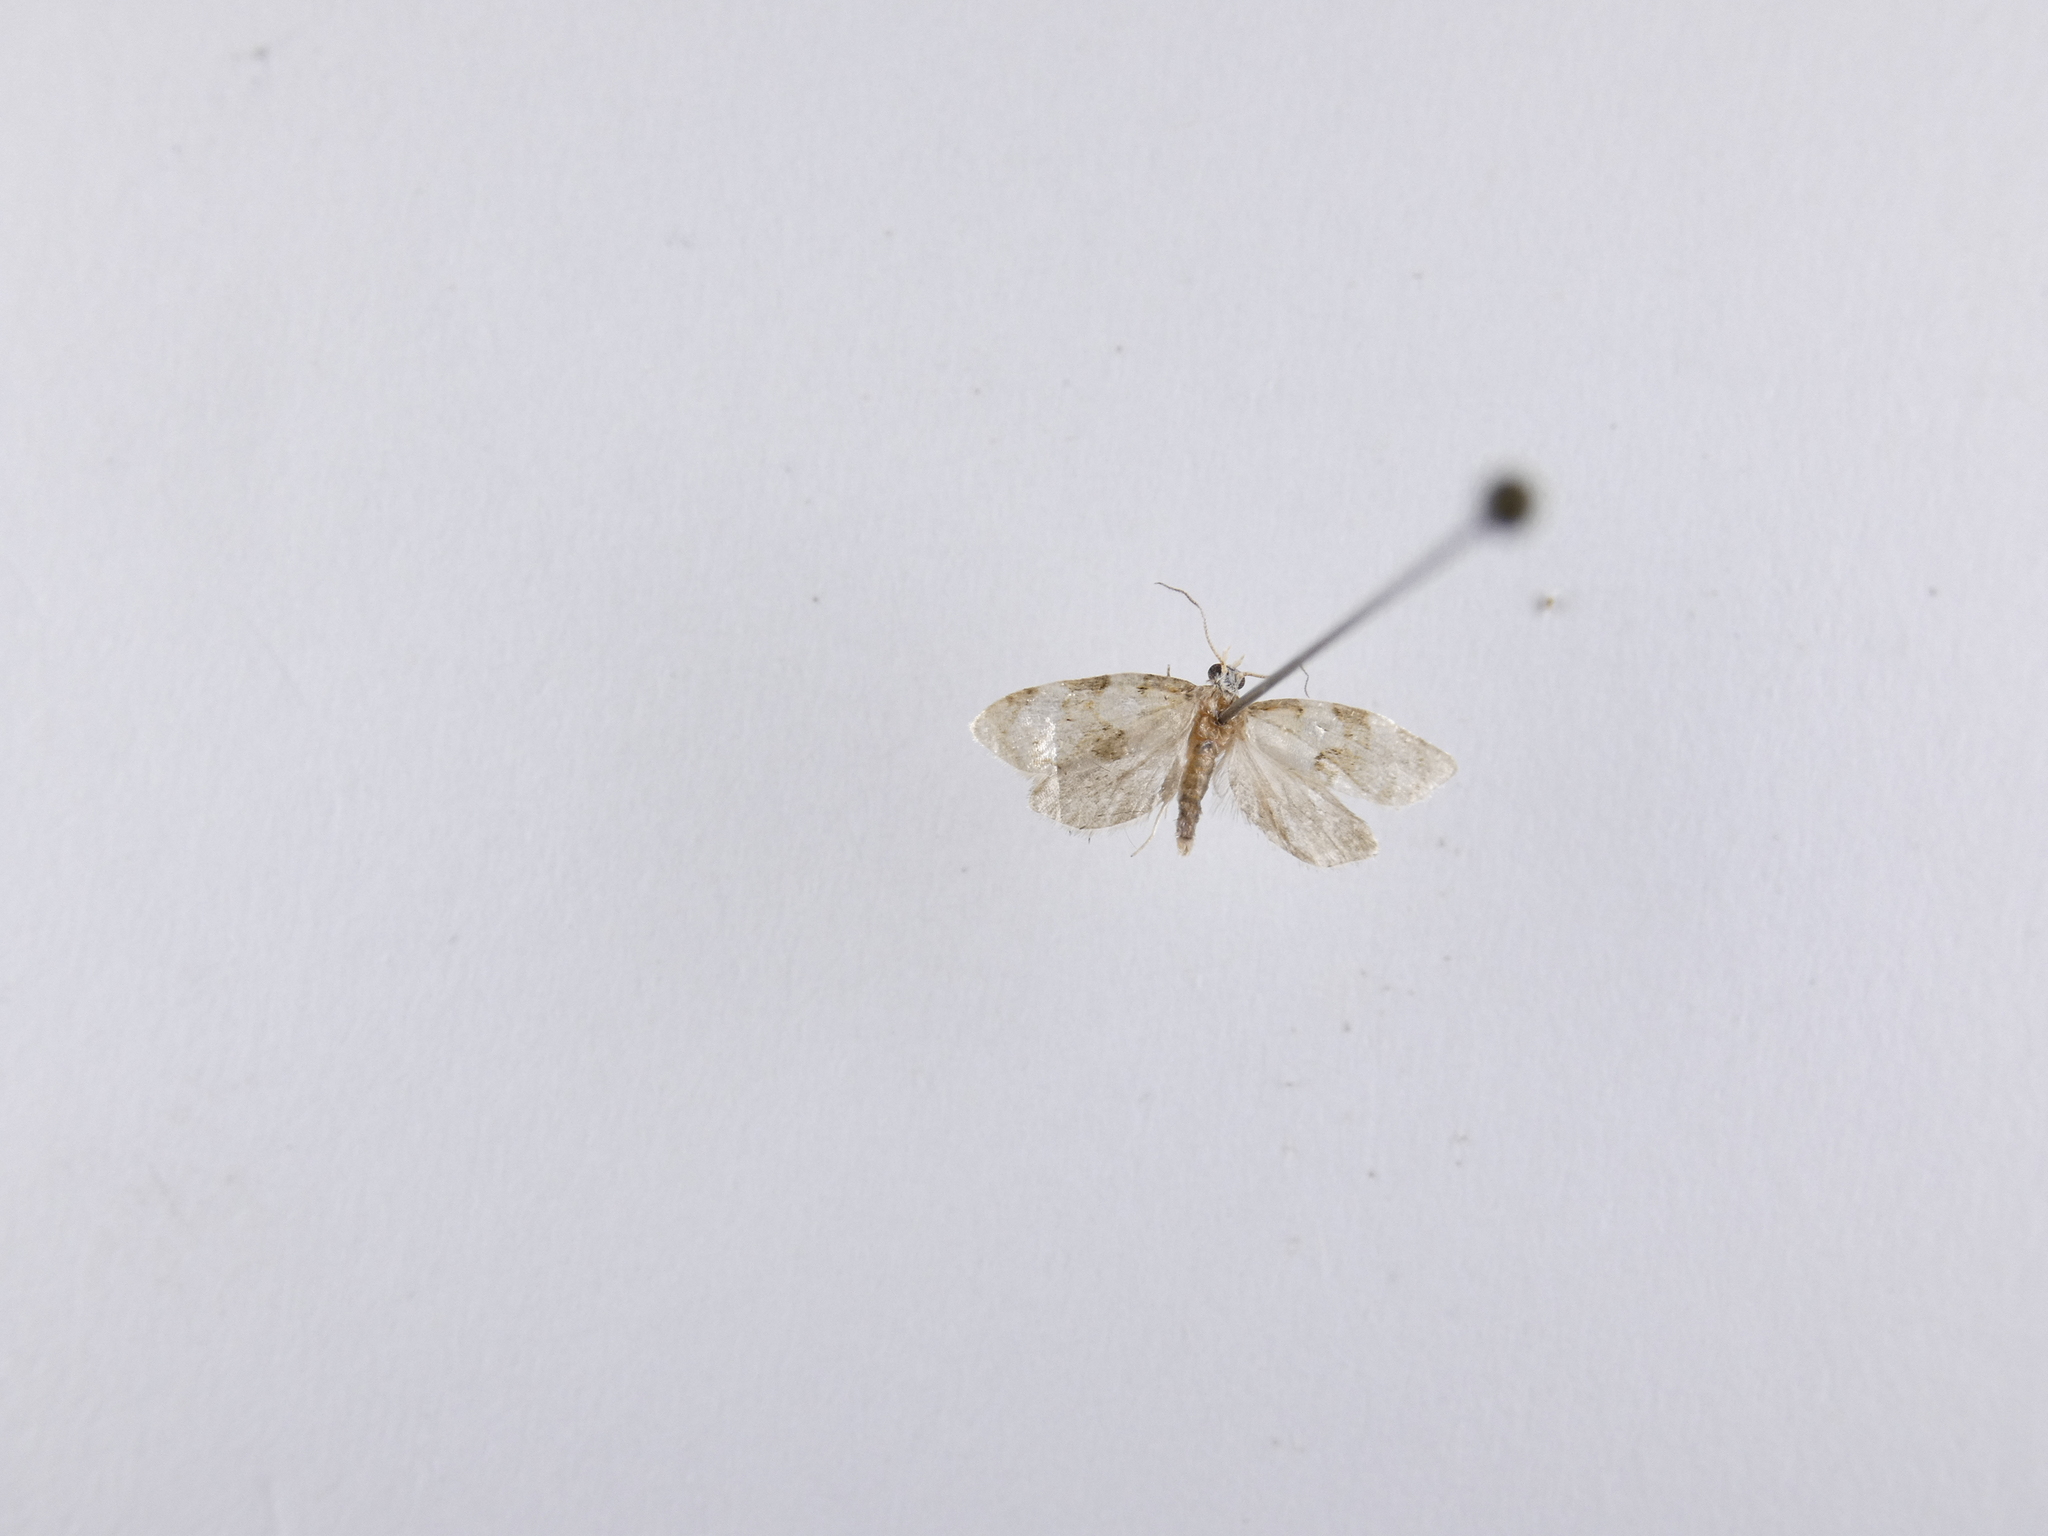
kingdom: Animalia
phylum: Arthropoda
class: Insecta
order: Lepidoptera
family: Tortricidae
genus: Dipterina
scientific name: Dipterina imbriferana
